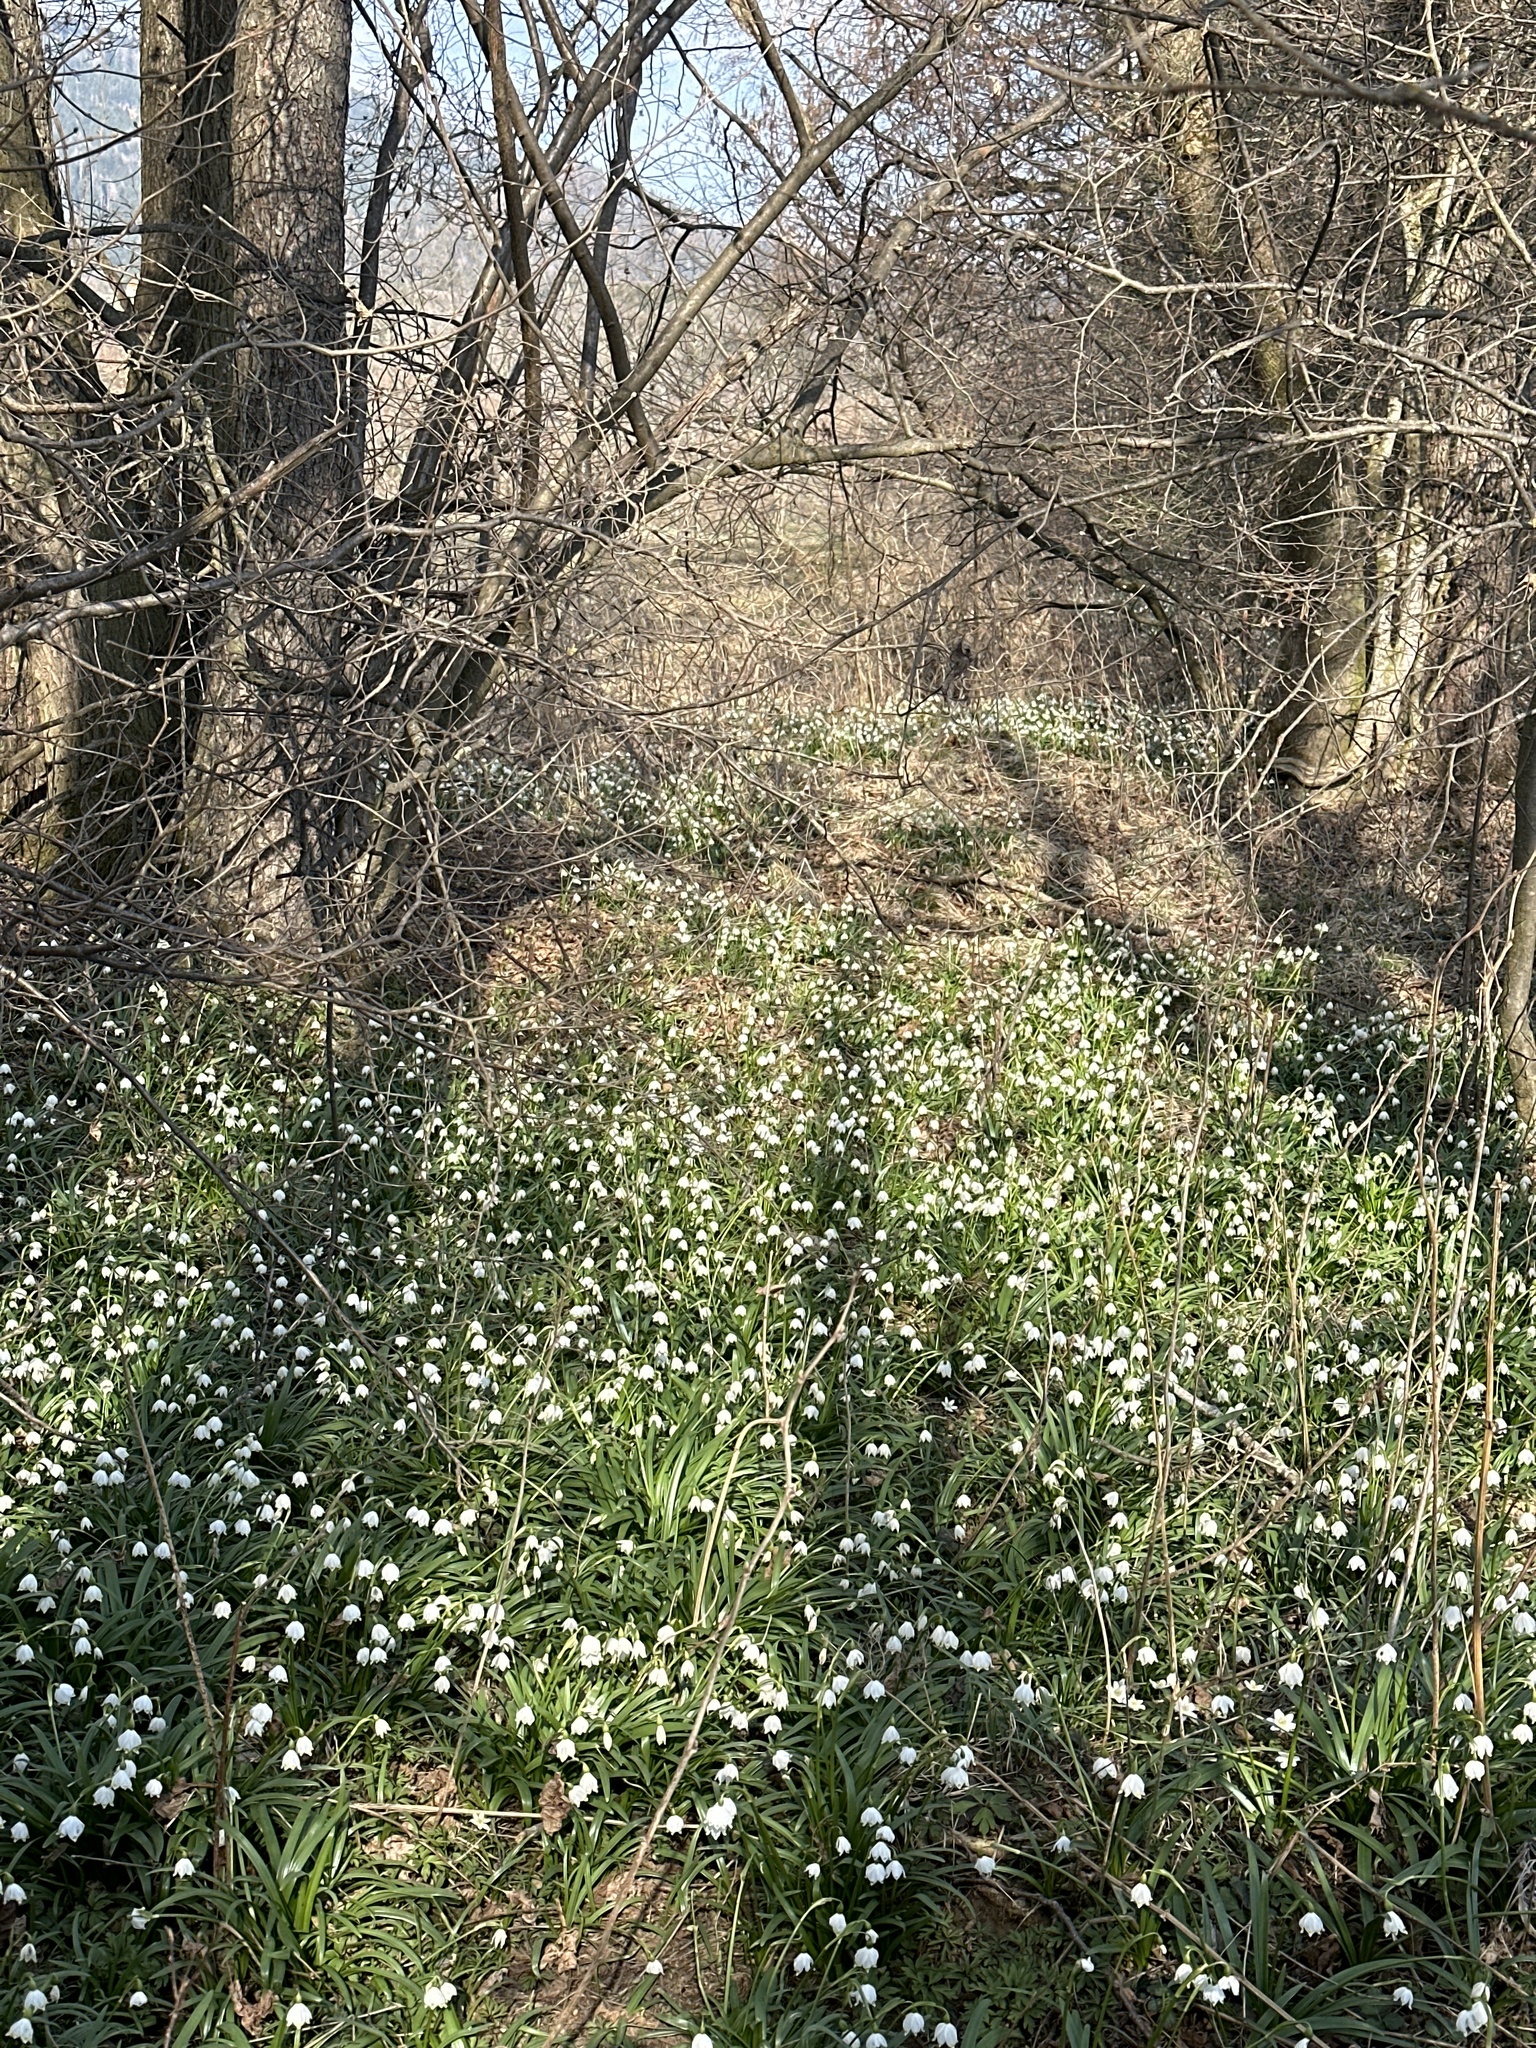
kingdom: Plantae
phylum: Tracheophyta
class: Liliopsida
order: Asparagales
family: Amaryllidaceae
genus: Leucojum
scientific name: Leucojum vernum
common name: Spring snowflake
